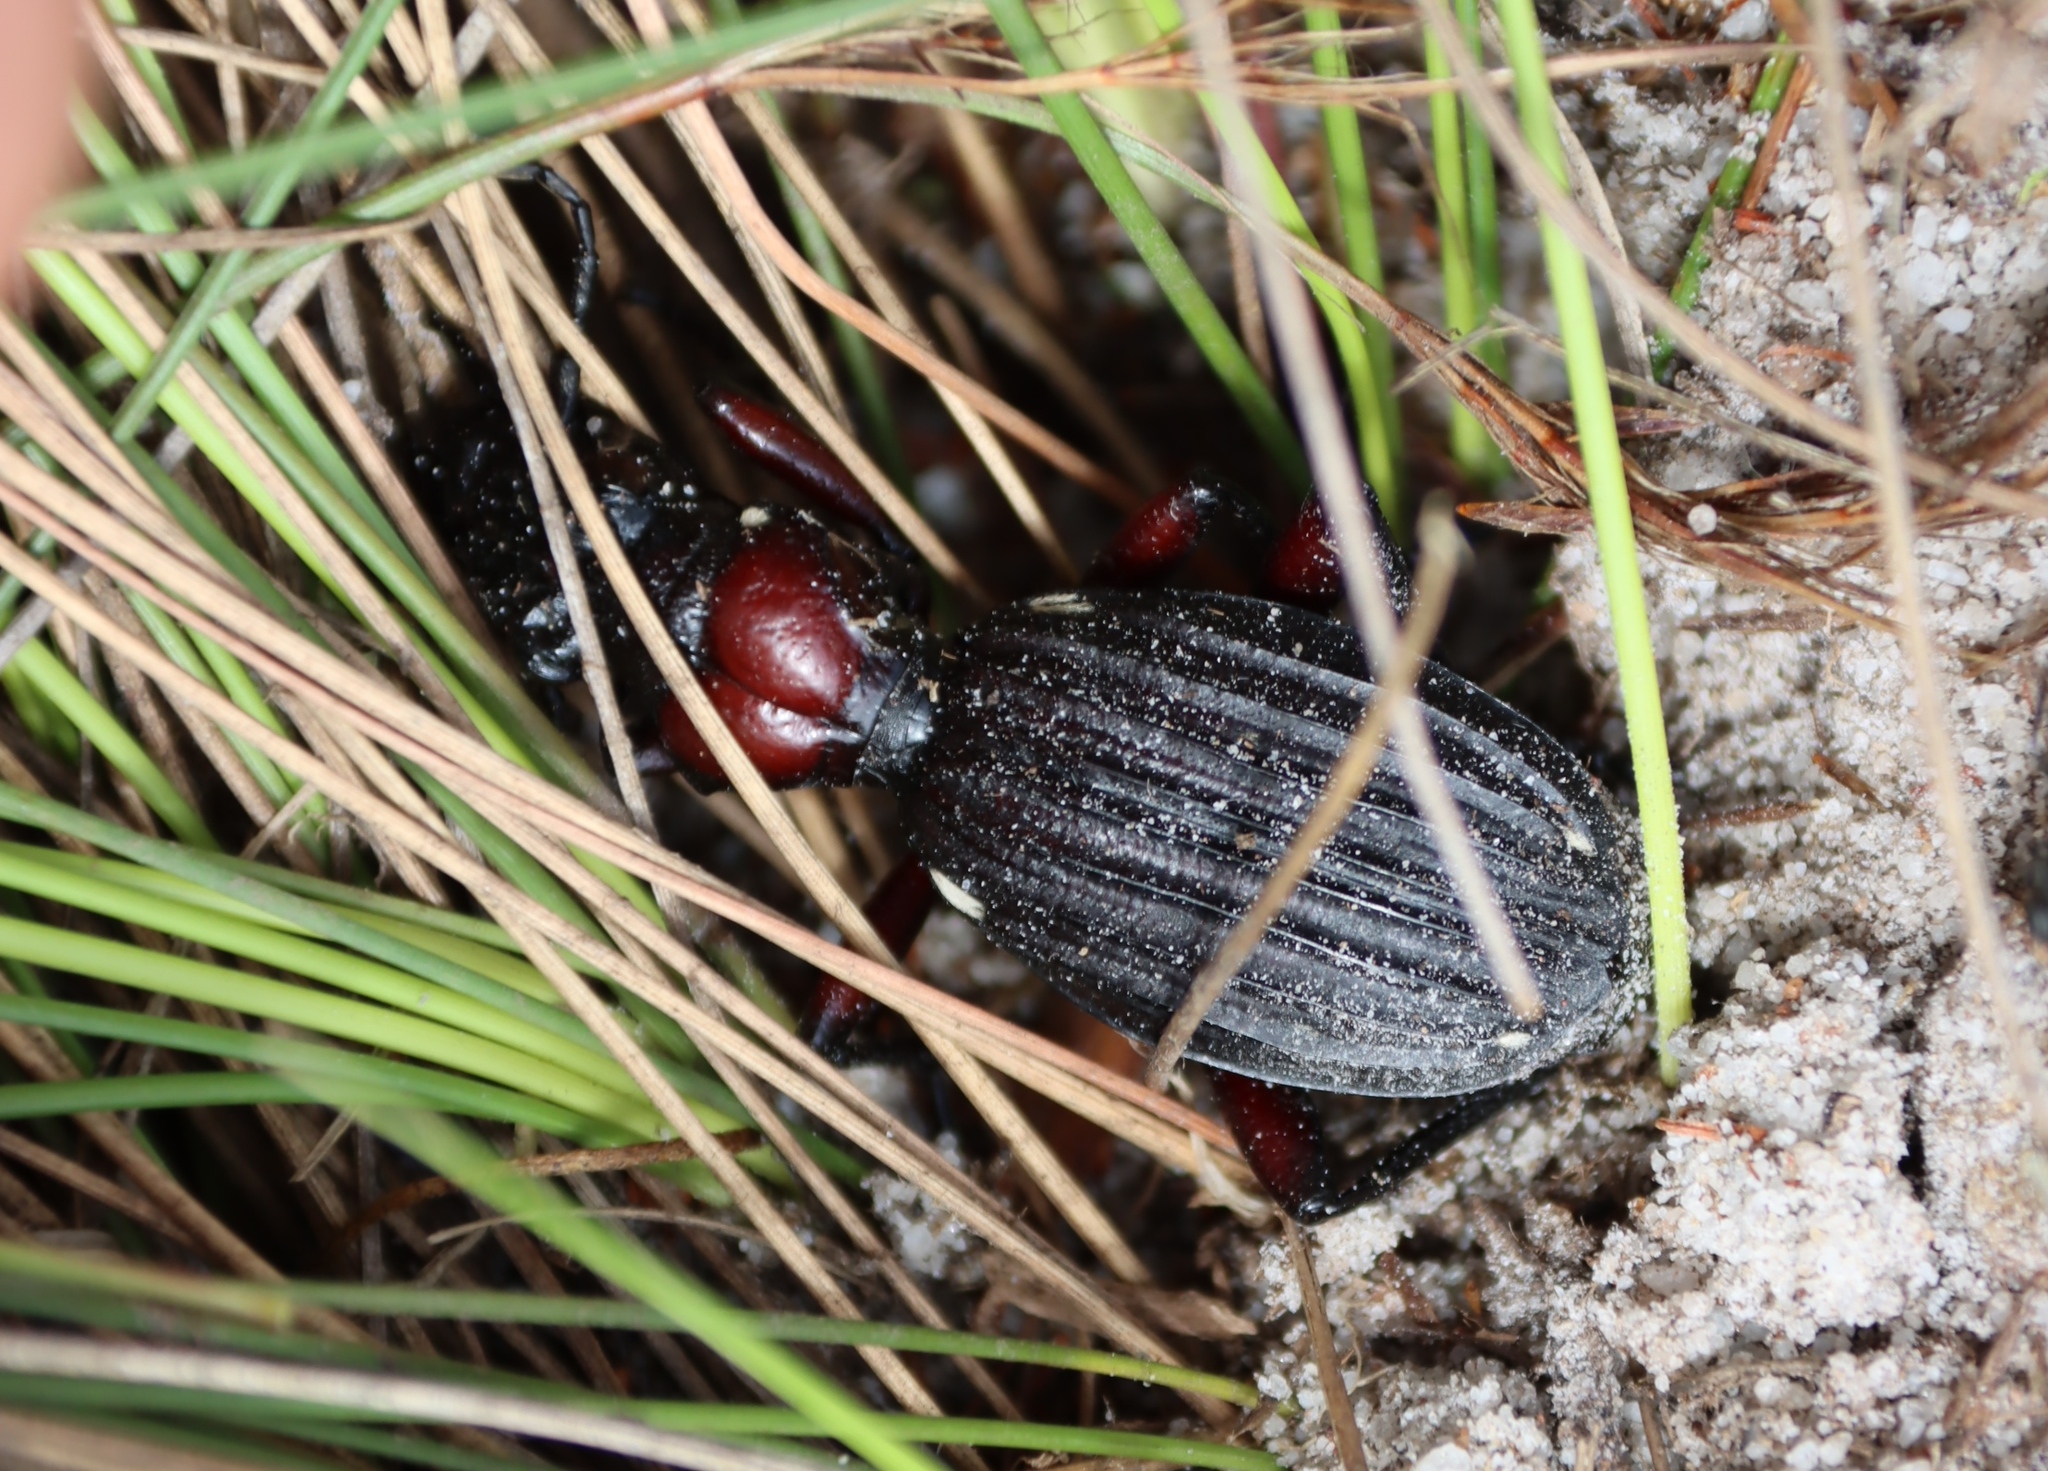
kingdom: Animalia
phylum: Arthropoda
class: Insecta
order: Coleoptera
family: Carabidae
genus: Anthia
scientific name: Anthia decemguttata
